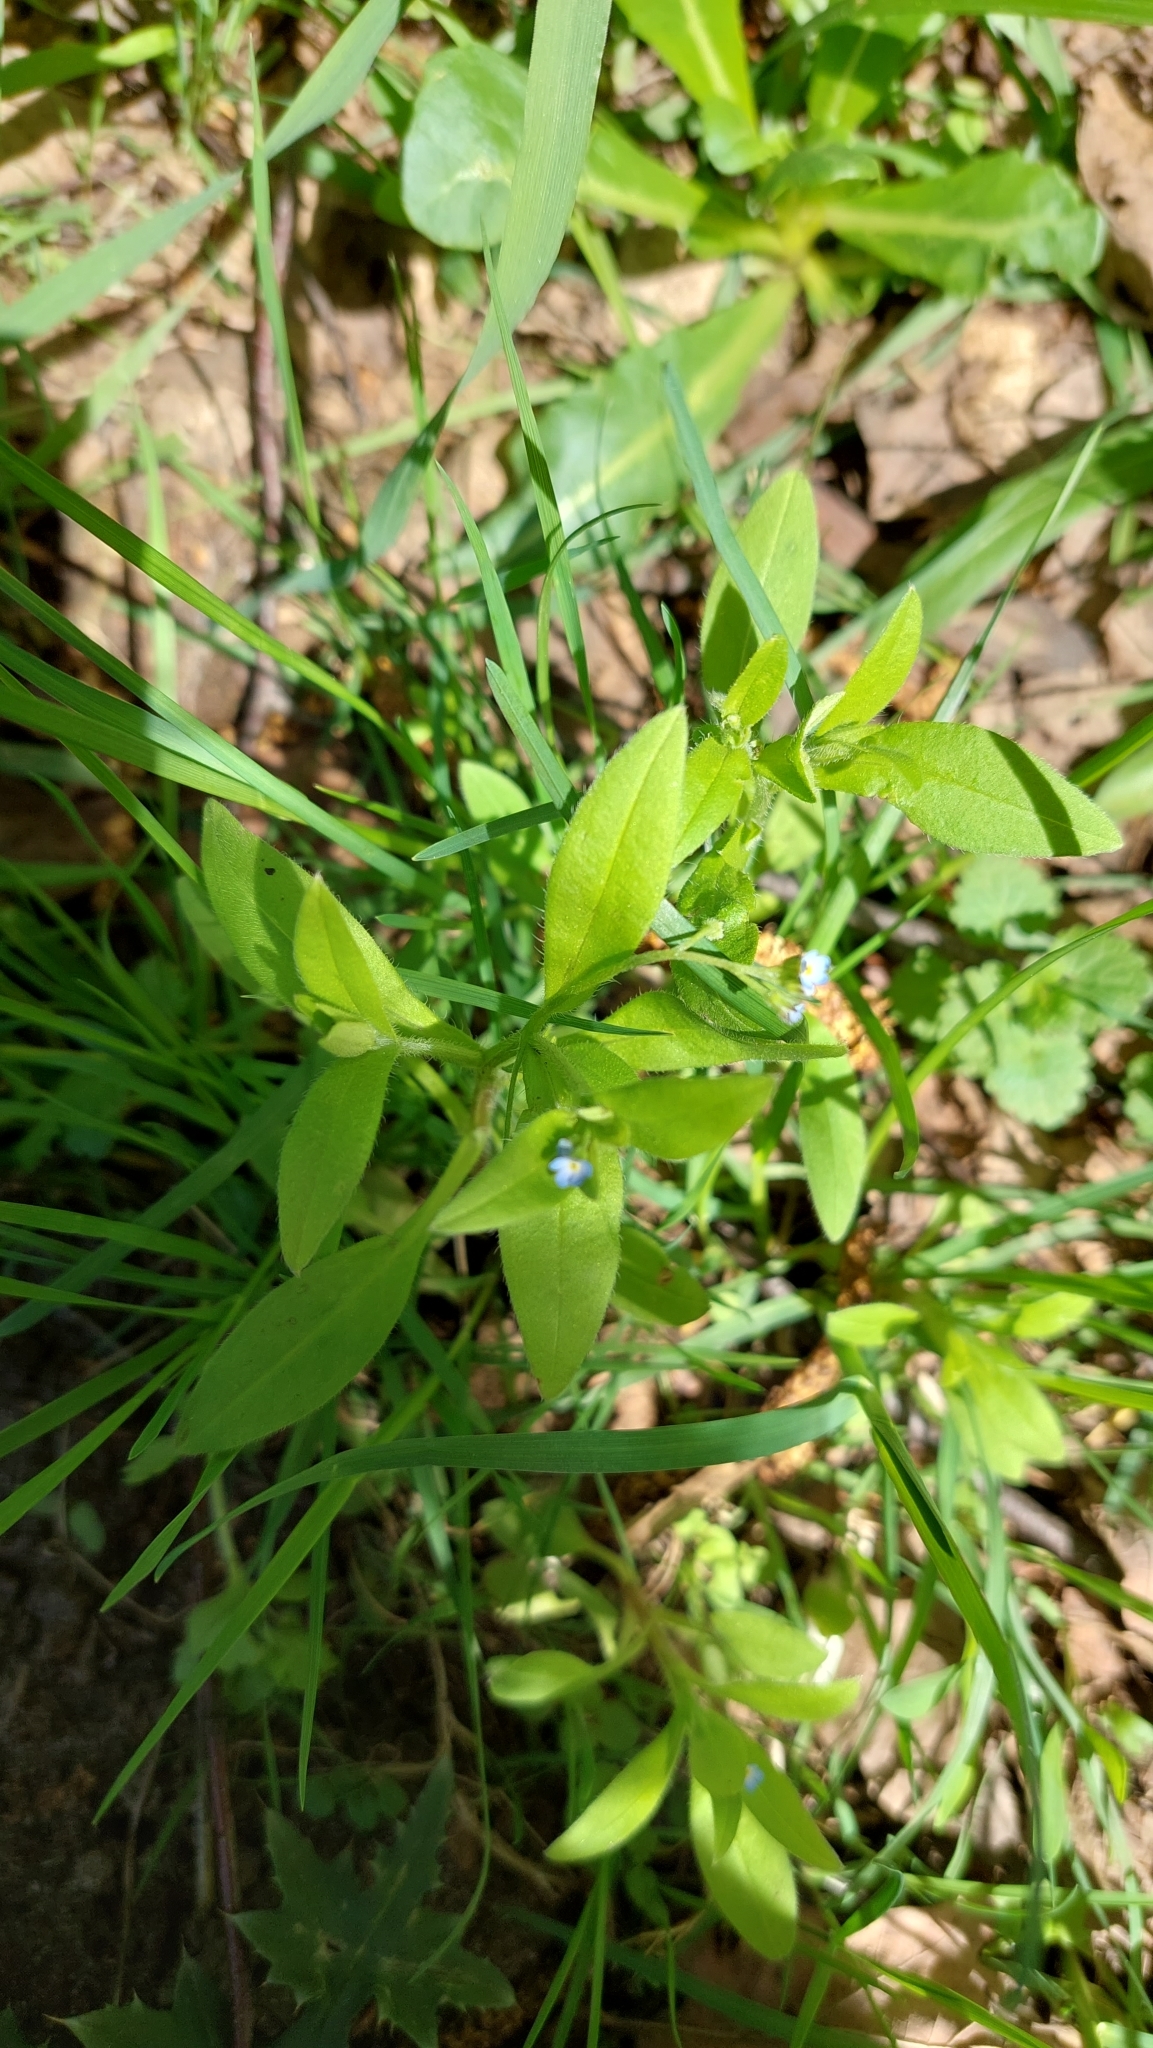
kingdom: Plantae
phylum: Tracheophyta
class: Magnoliopsida
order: Boraginales
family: Boraginaceae
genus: Myosotis
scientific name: Myosotis sparsiflora
